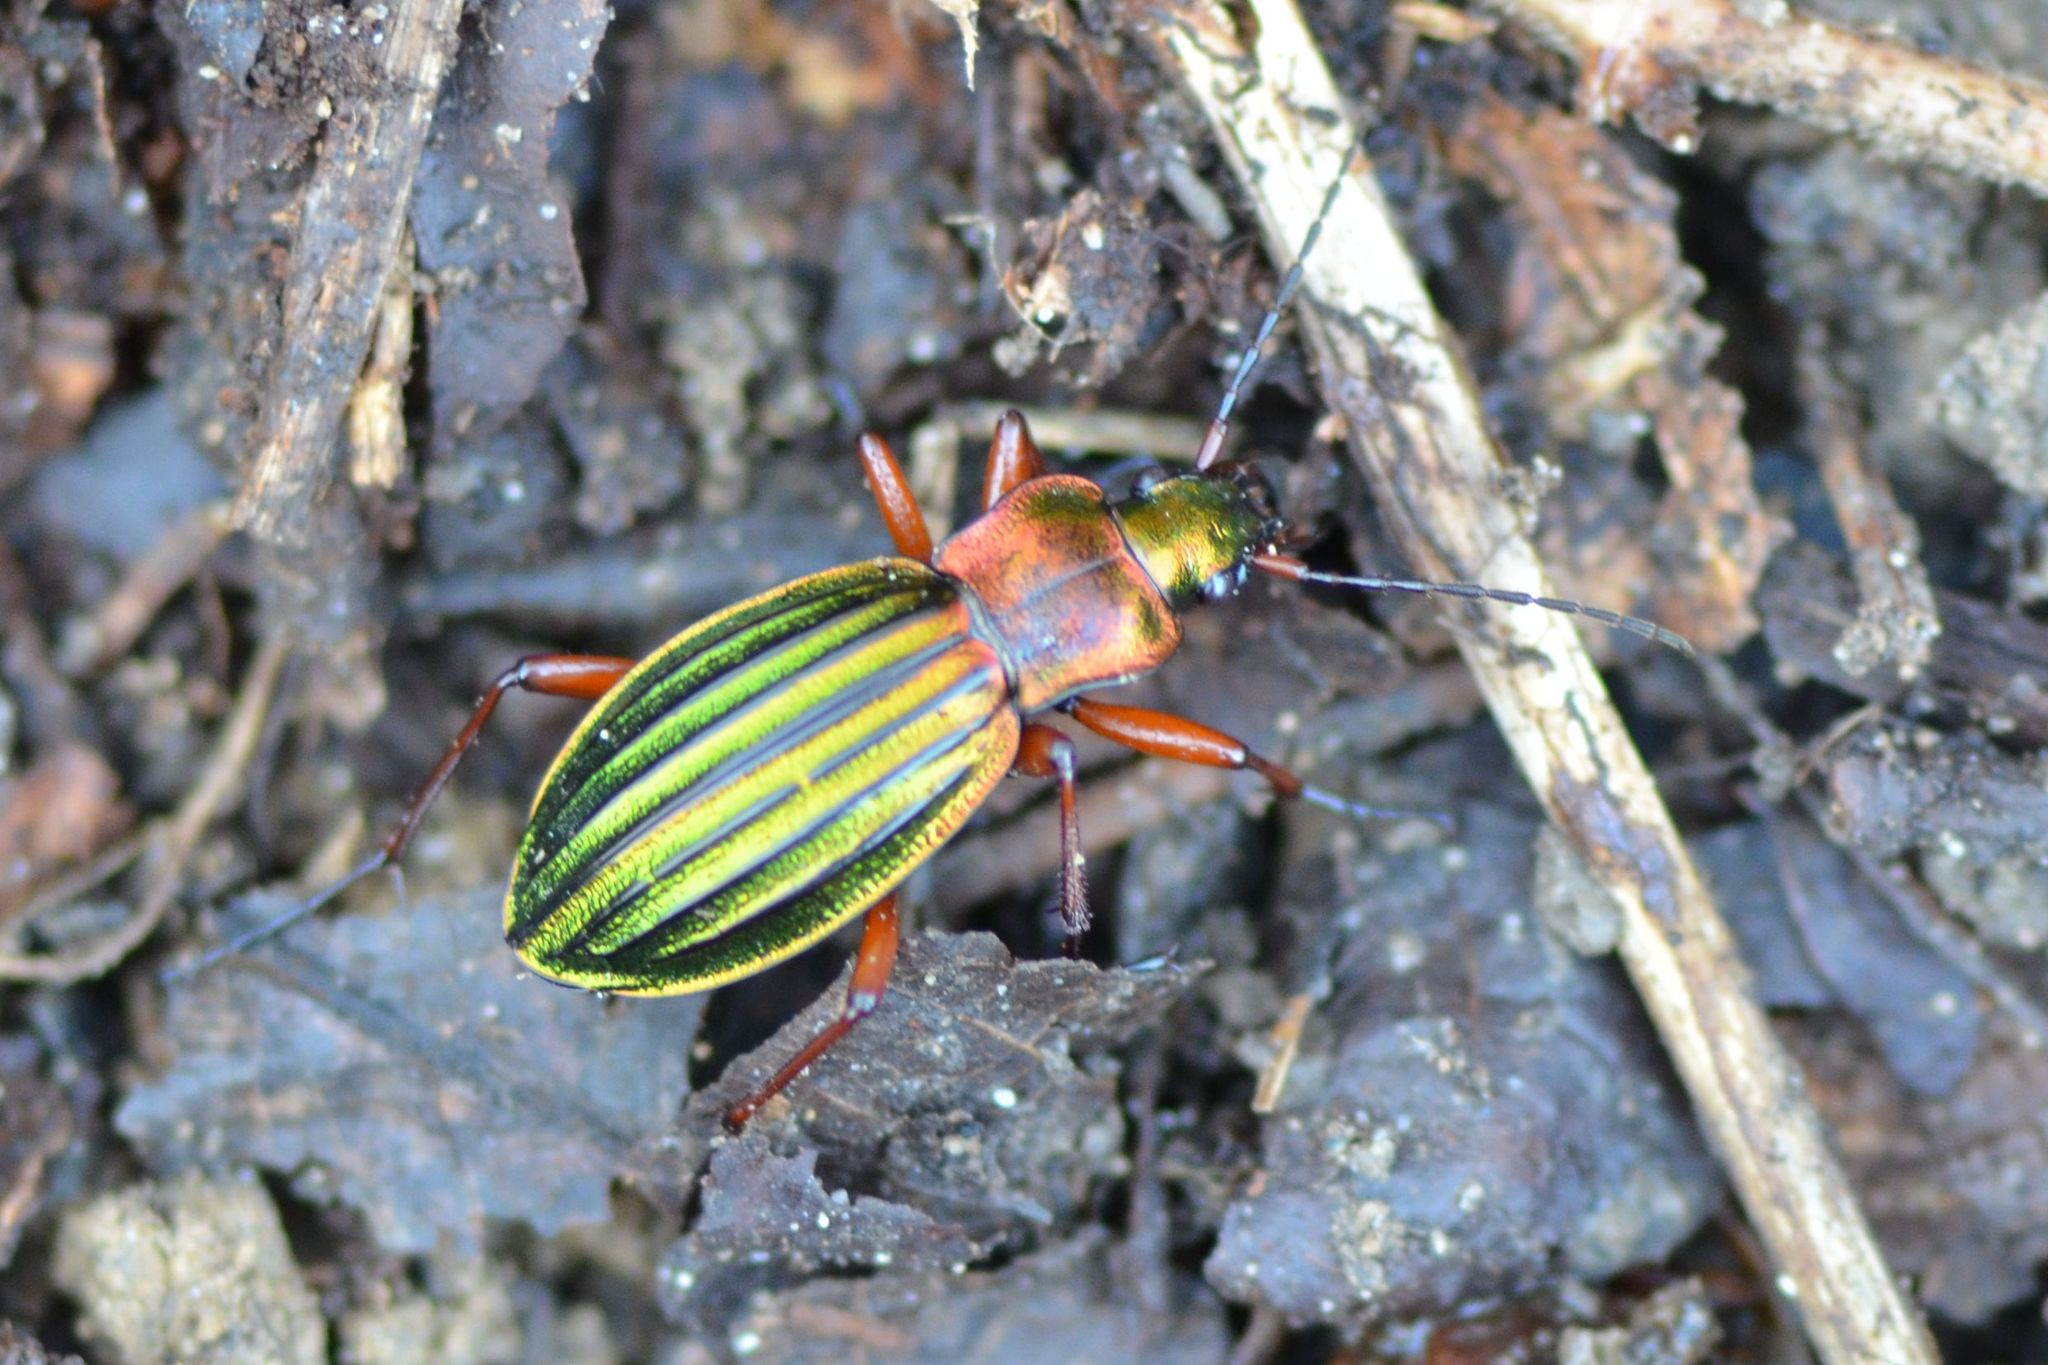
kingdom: Animalia
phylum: Arthropoda
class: Insecta
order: Coleoptera
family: Carabidae
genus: Carabus
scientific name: Carabus auronitens
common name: Carabus auronitens
